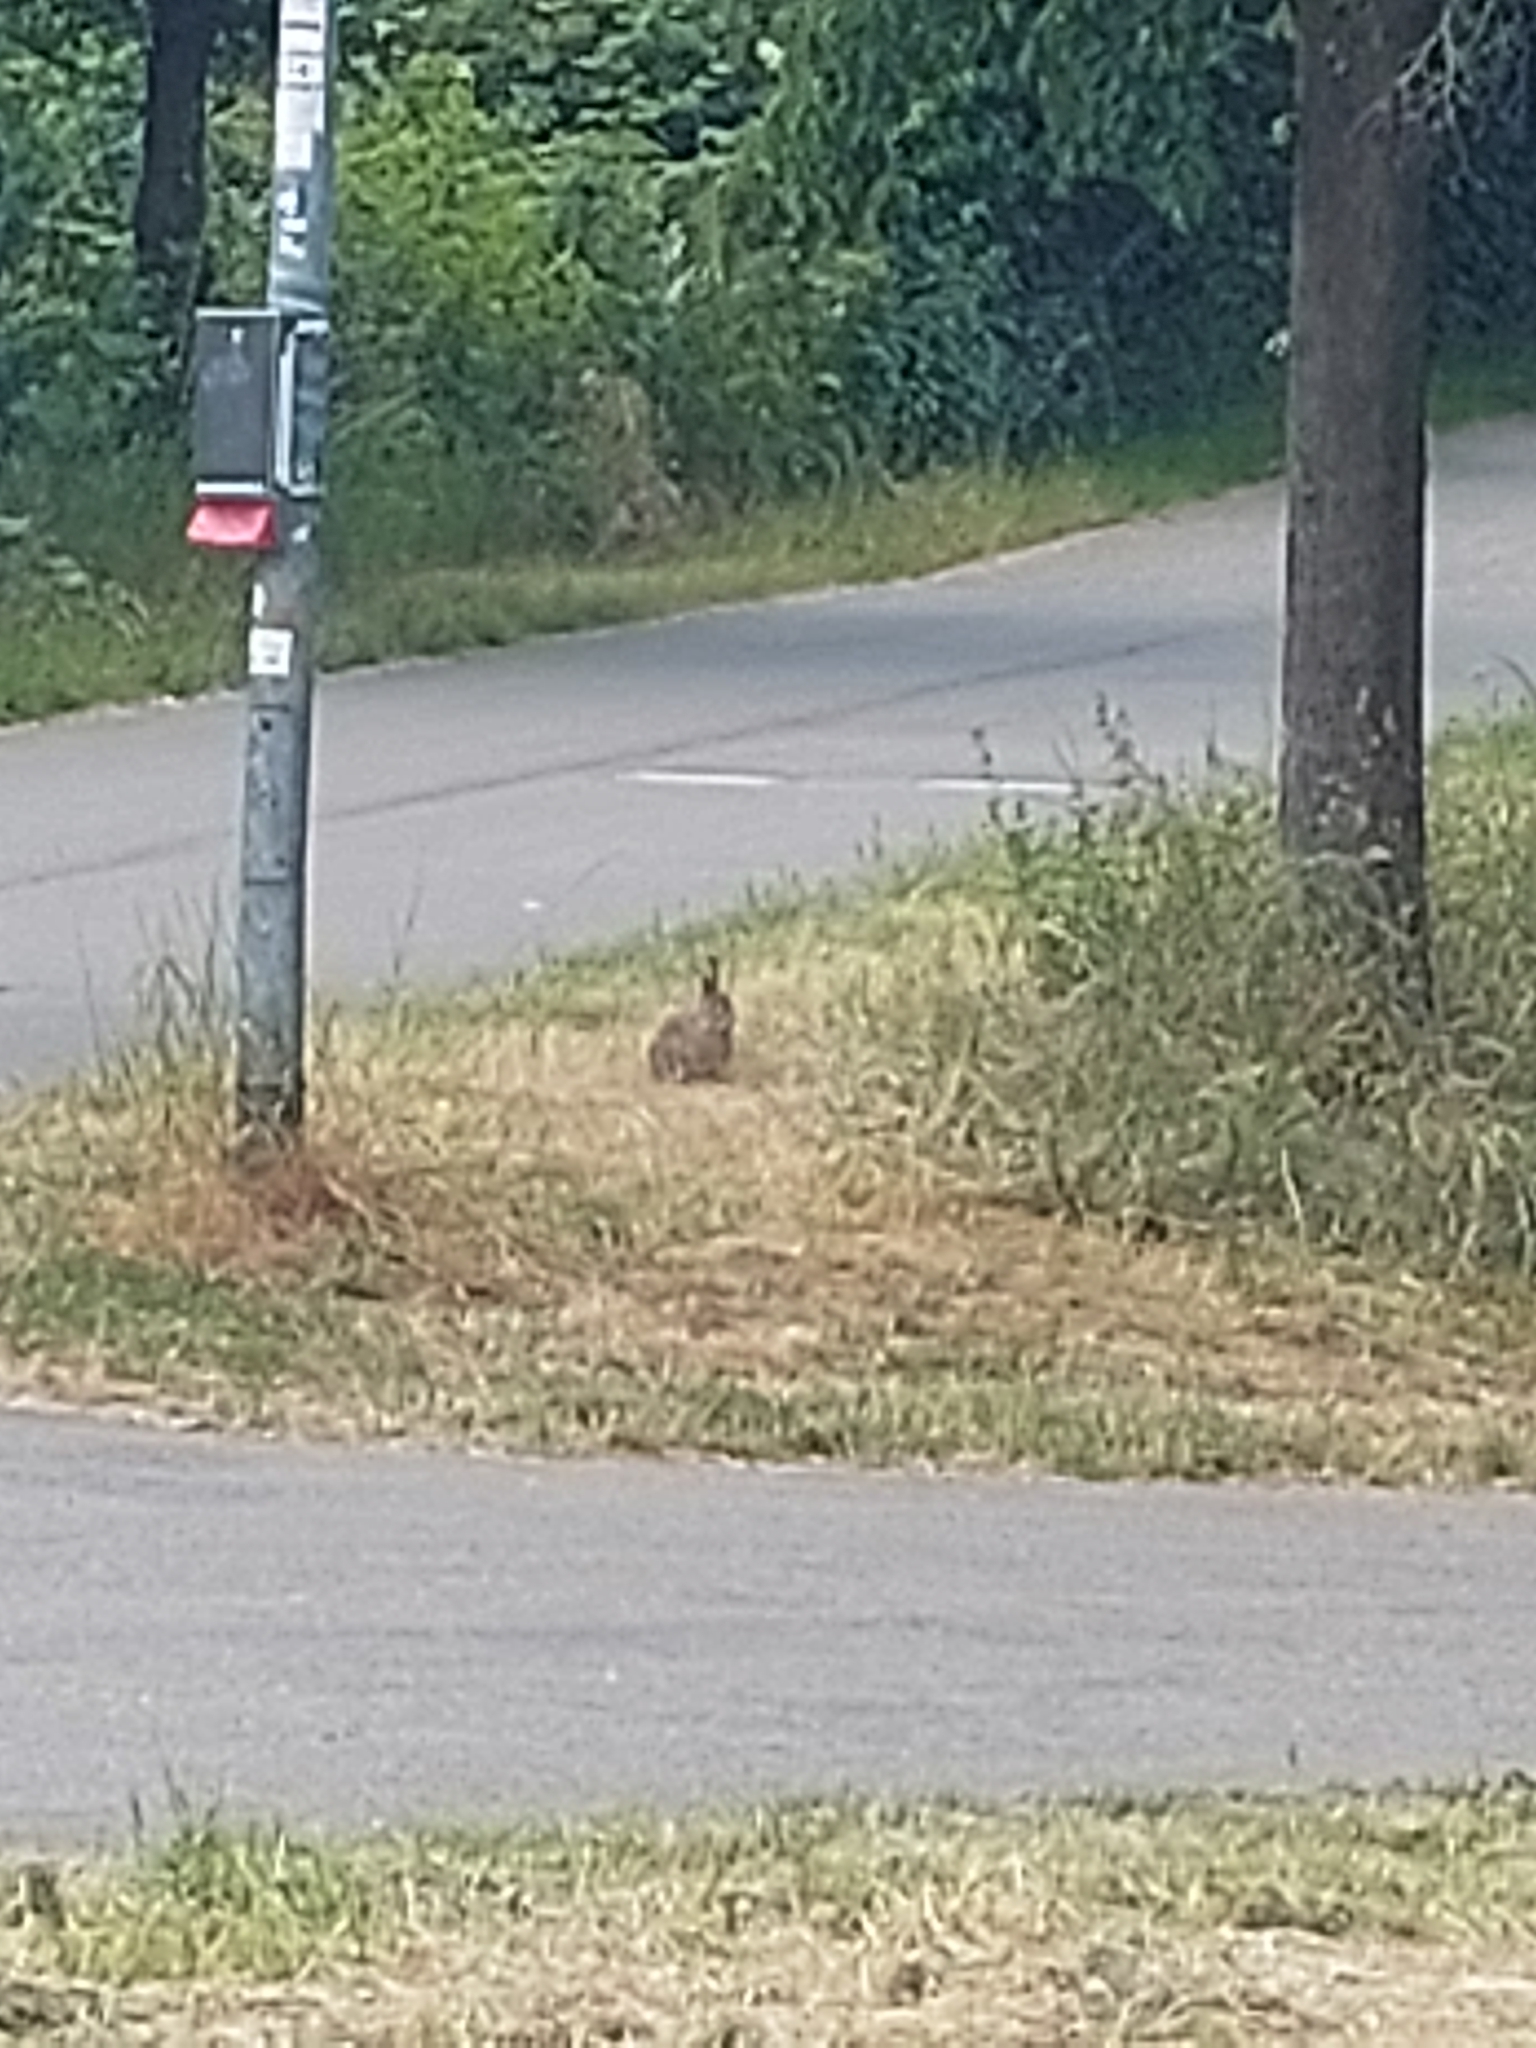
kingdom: Animalia
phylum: Chordata
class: Mammalia
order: Lagomorpha
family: Leporidae
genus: Oryctolagus
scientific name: Oryctolagus cuniculus
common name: European rabbit
